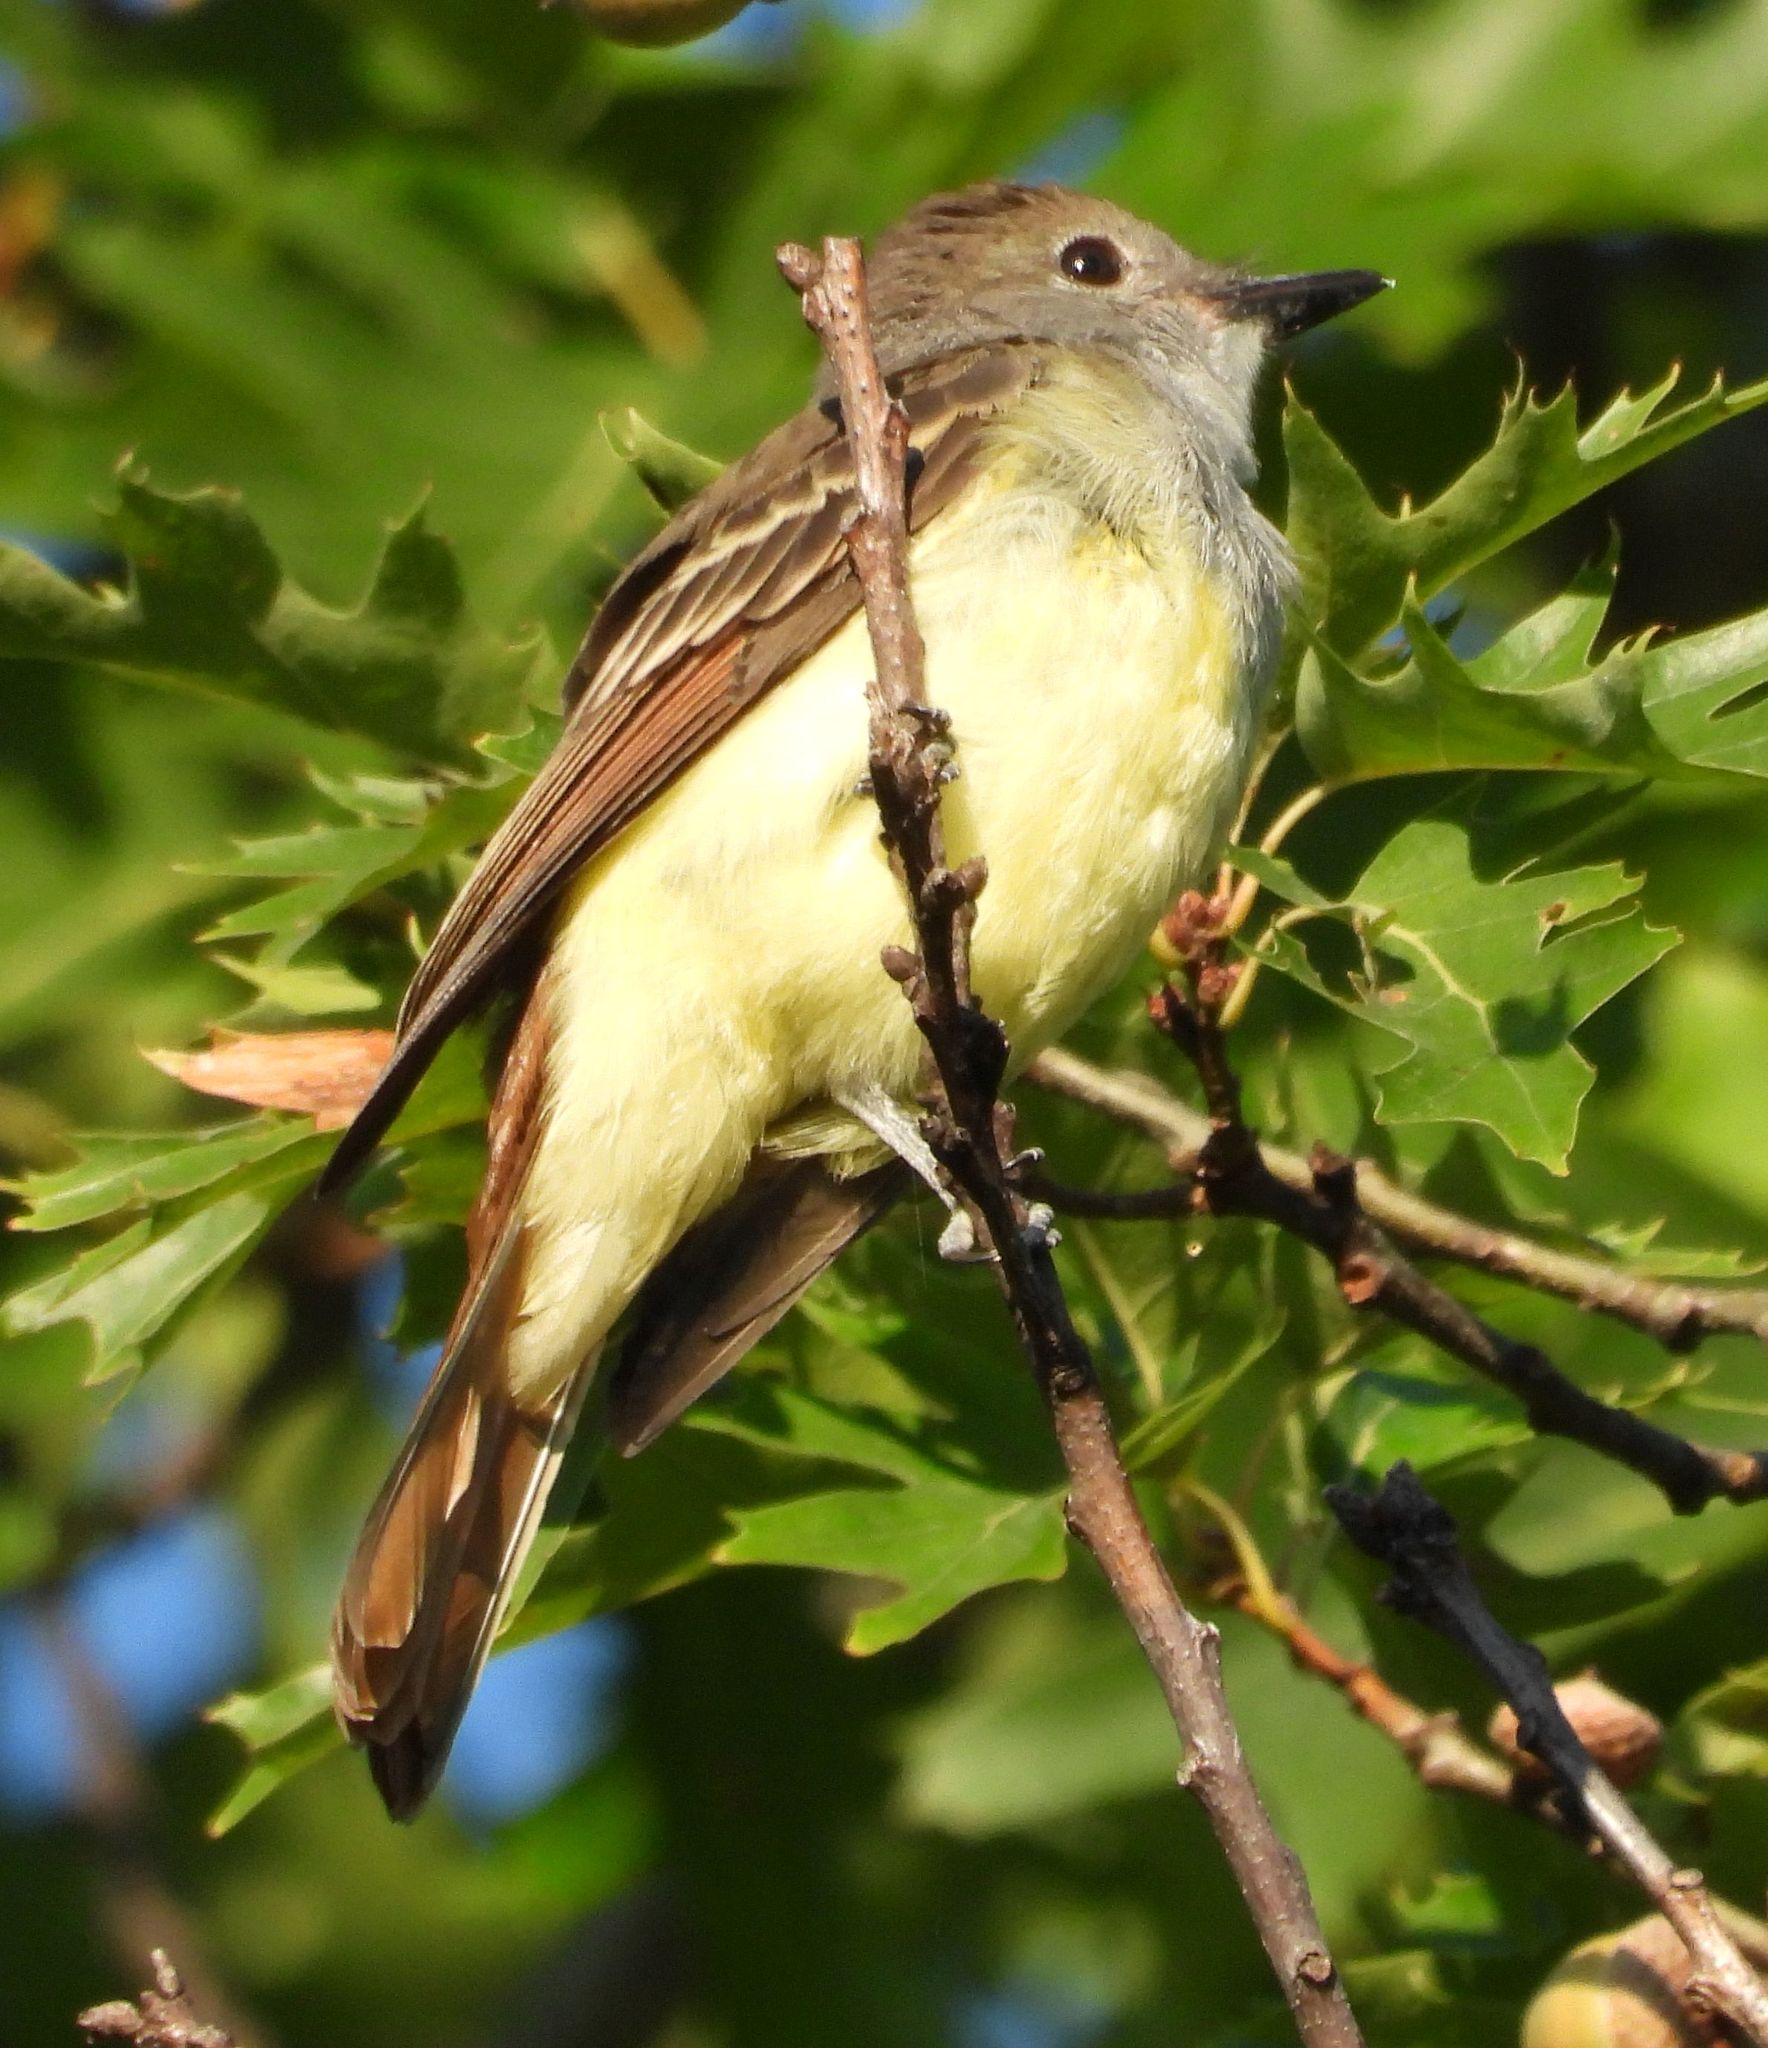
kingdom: Animalia
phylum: Chordata
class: Aves
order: Passeriformes
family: Tyrannidae
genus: Myiarchus
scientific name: Myiarchus crinitus
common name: Great crested flycatcher
